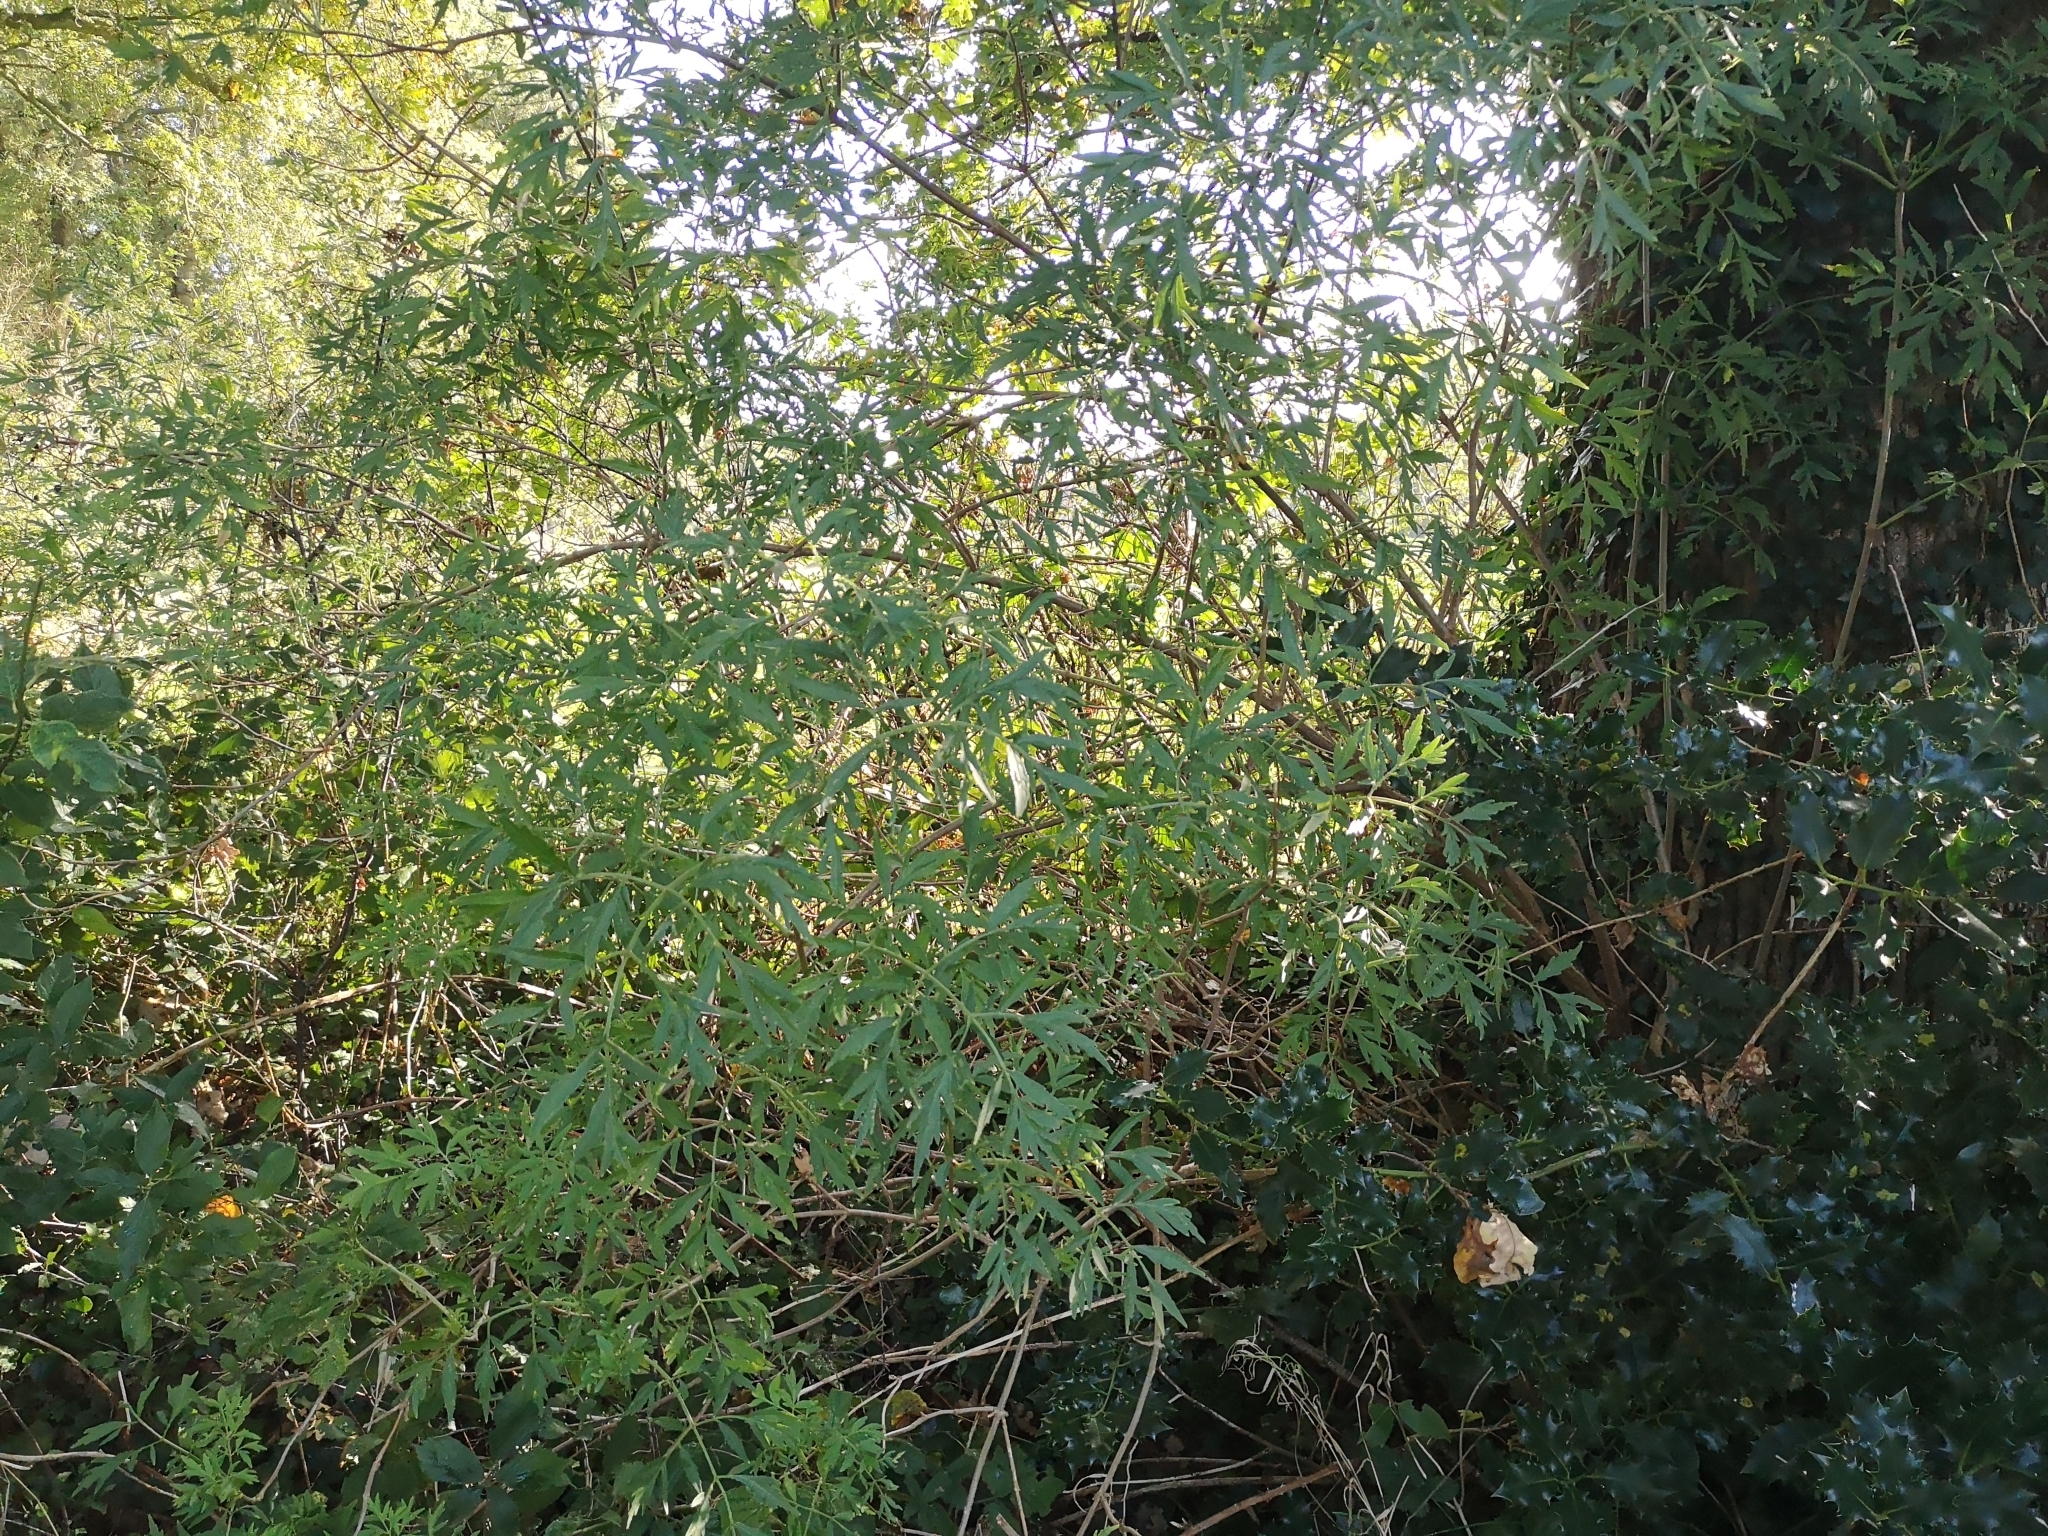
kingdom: Plantae
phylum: Tracheophyta
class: Magnoliopsida
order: Dipsacales
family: Viburnaceae
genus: Sambucus
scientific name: Sambucus nigra
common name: Elder
